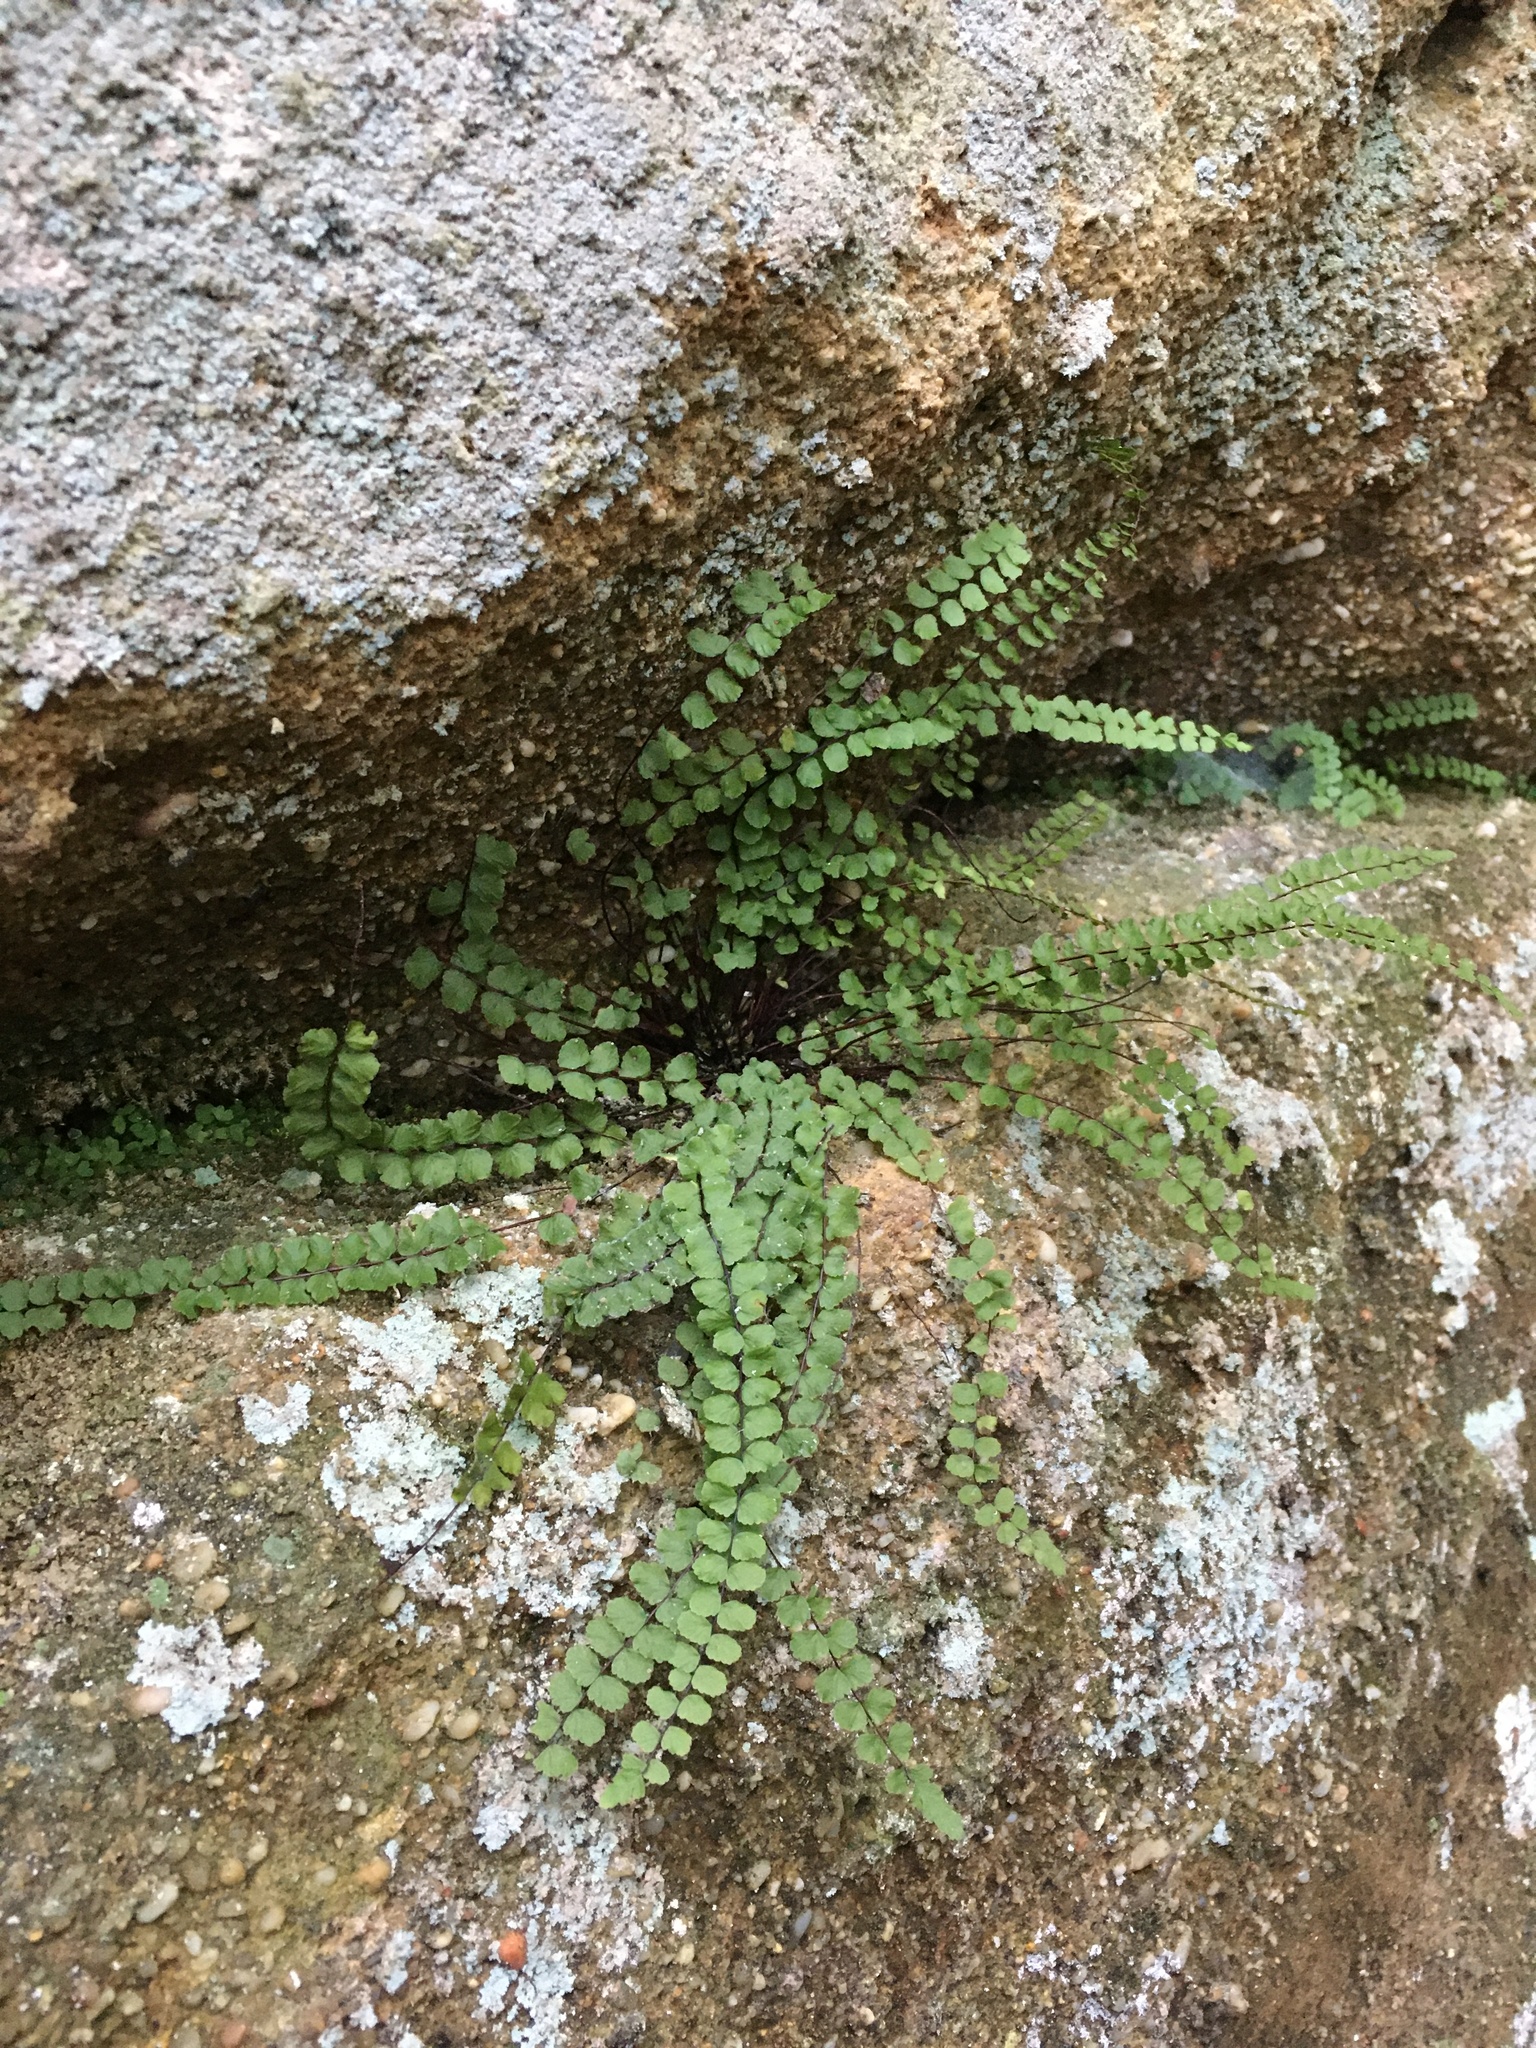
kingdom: Plantae
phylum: Tracheophyta
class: Polypodiopsida
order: Polypodiales
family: Aspleniaceae
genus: Asplenium
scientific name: Asplenium trichomanes
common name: Maidenhair spleenwort
